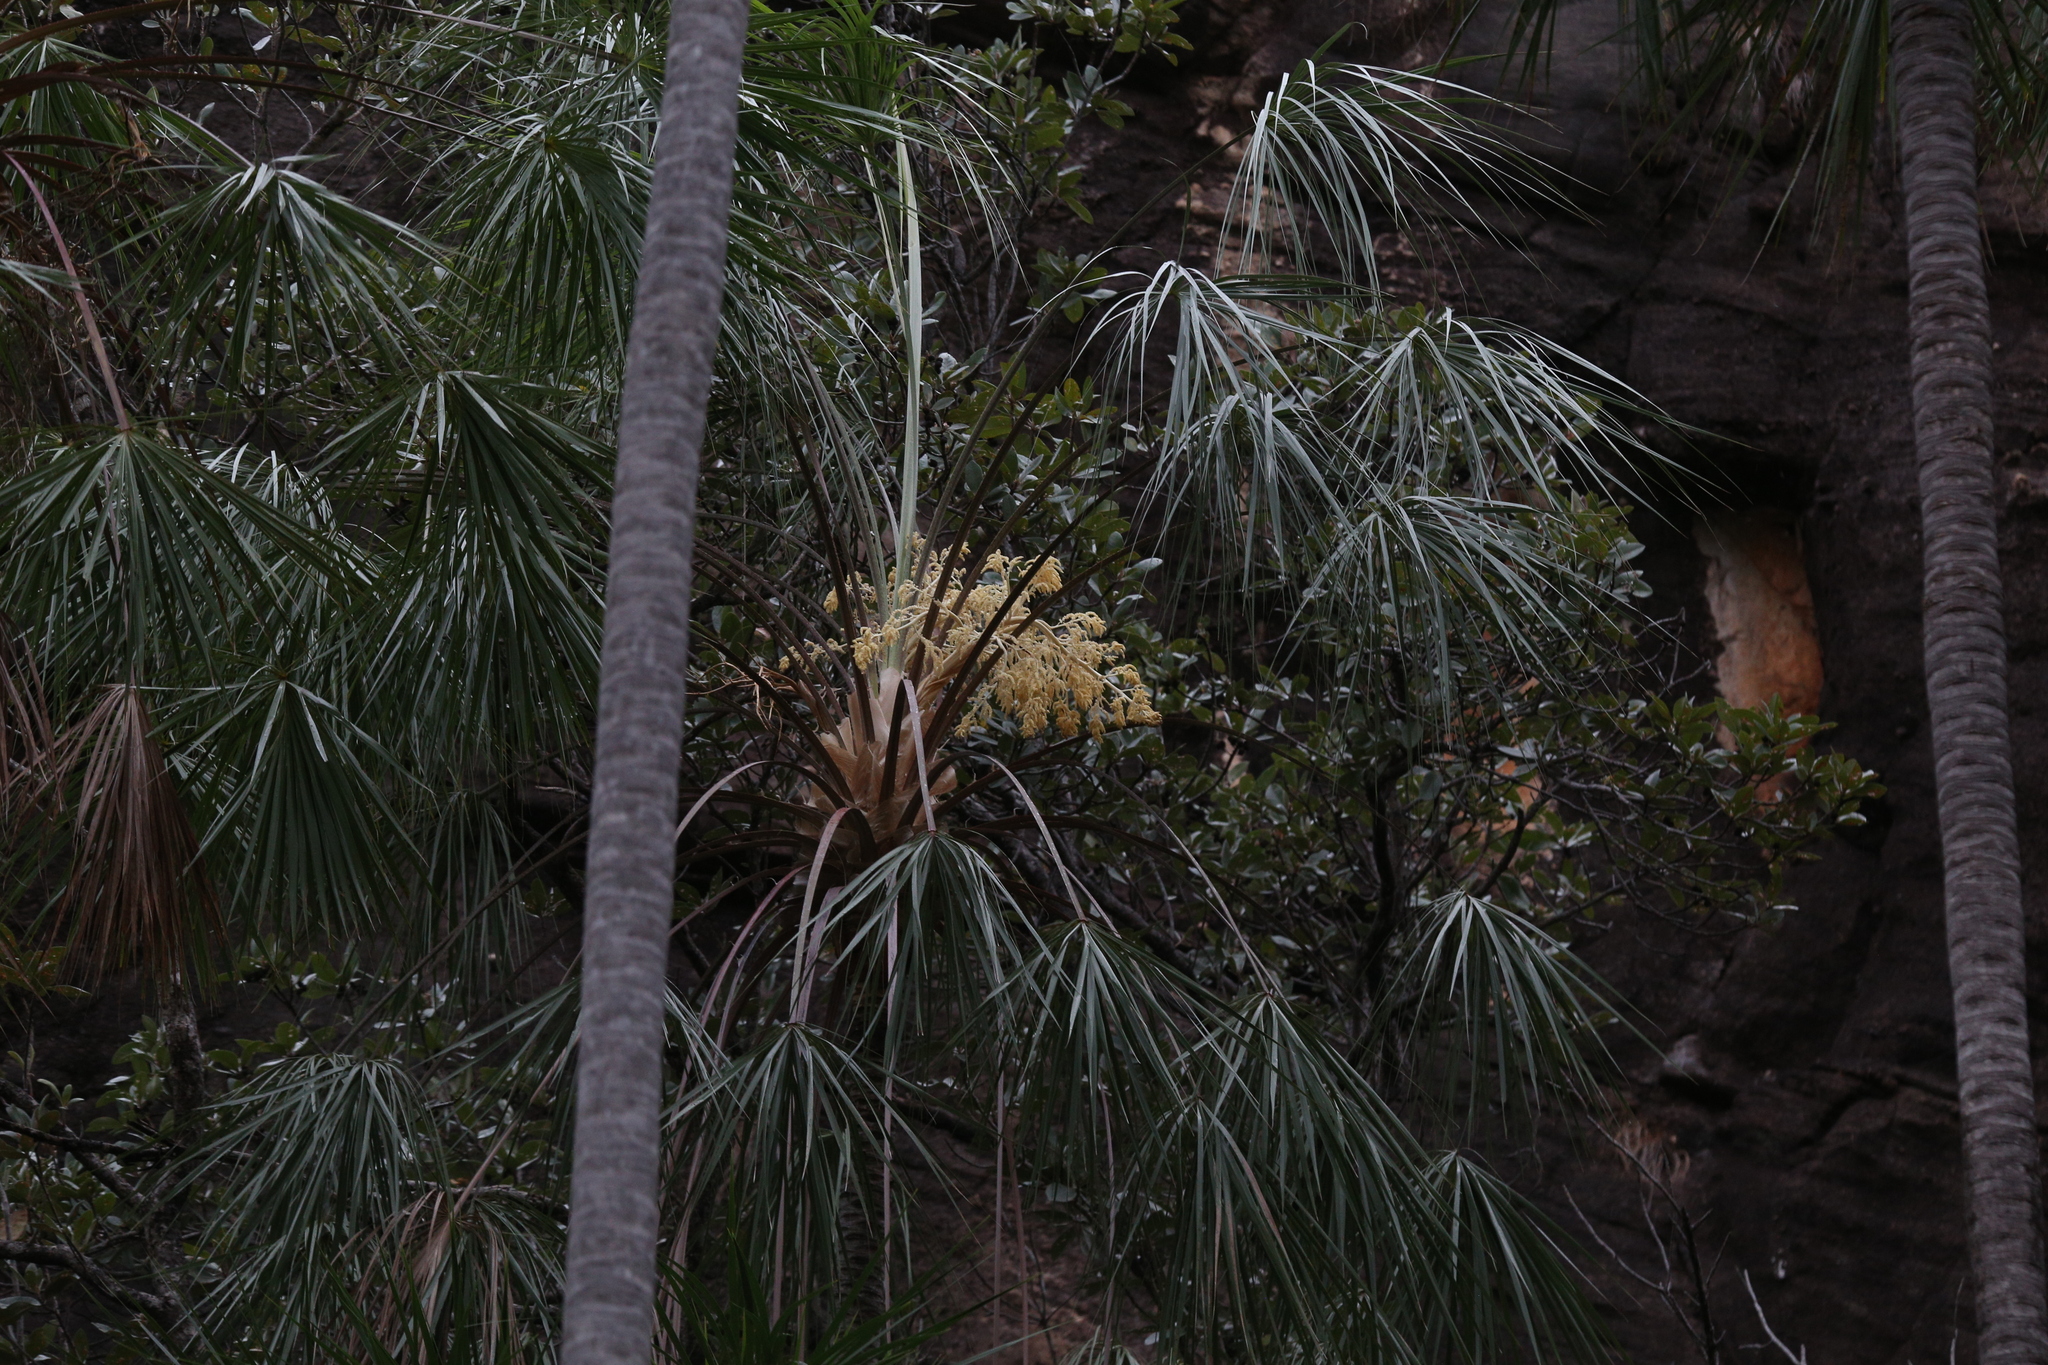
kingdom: Plantae
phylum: Tracheophyta
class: Liliopsida
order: Arecales
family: Arecaceae
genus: Livistona
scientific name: Livistona inermis
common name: Wispy fan palm
